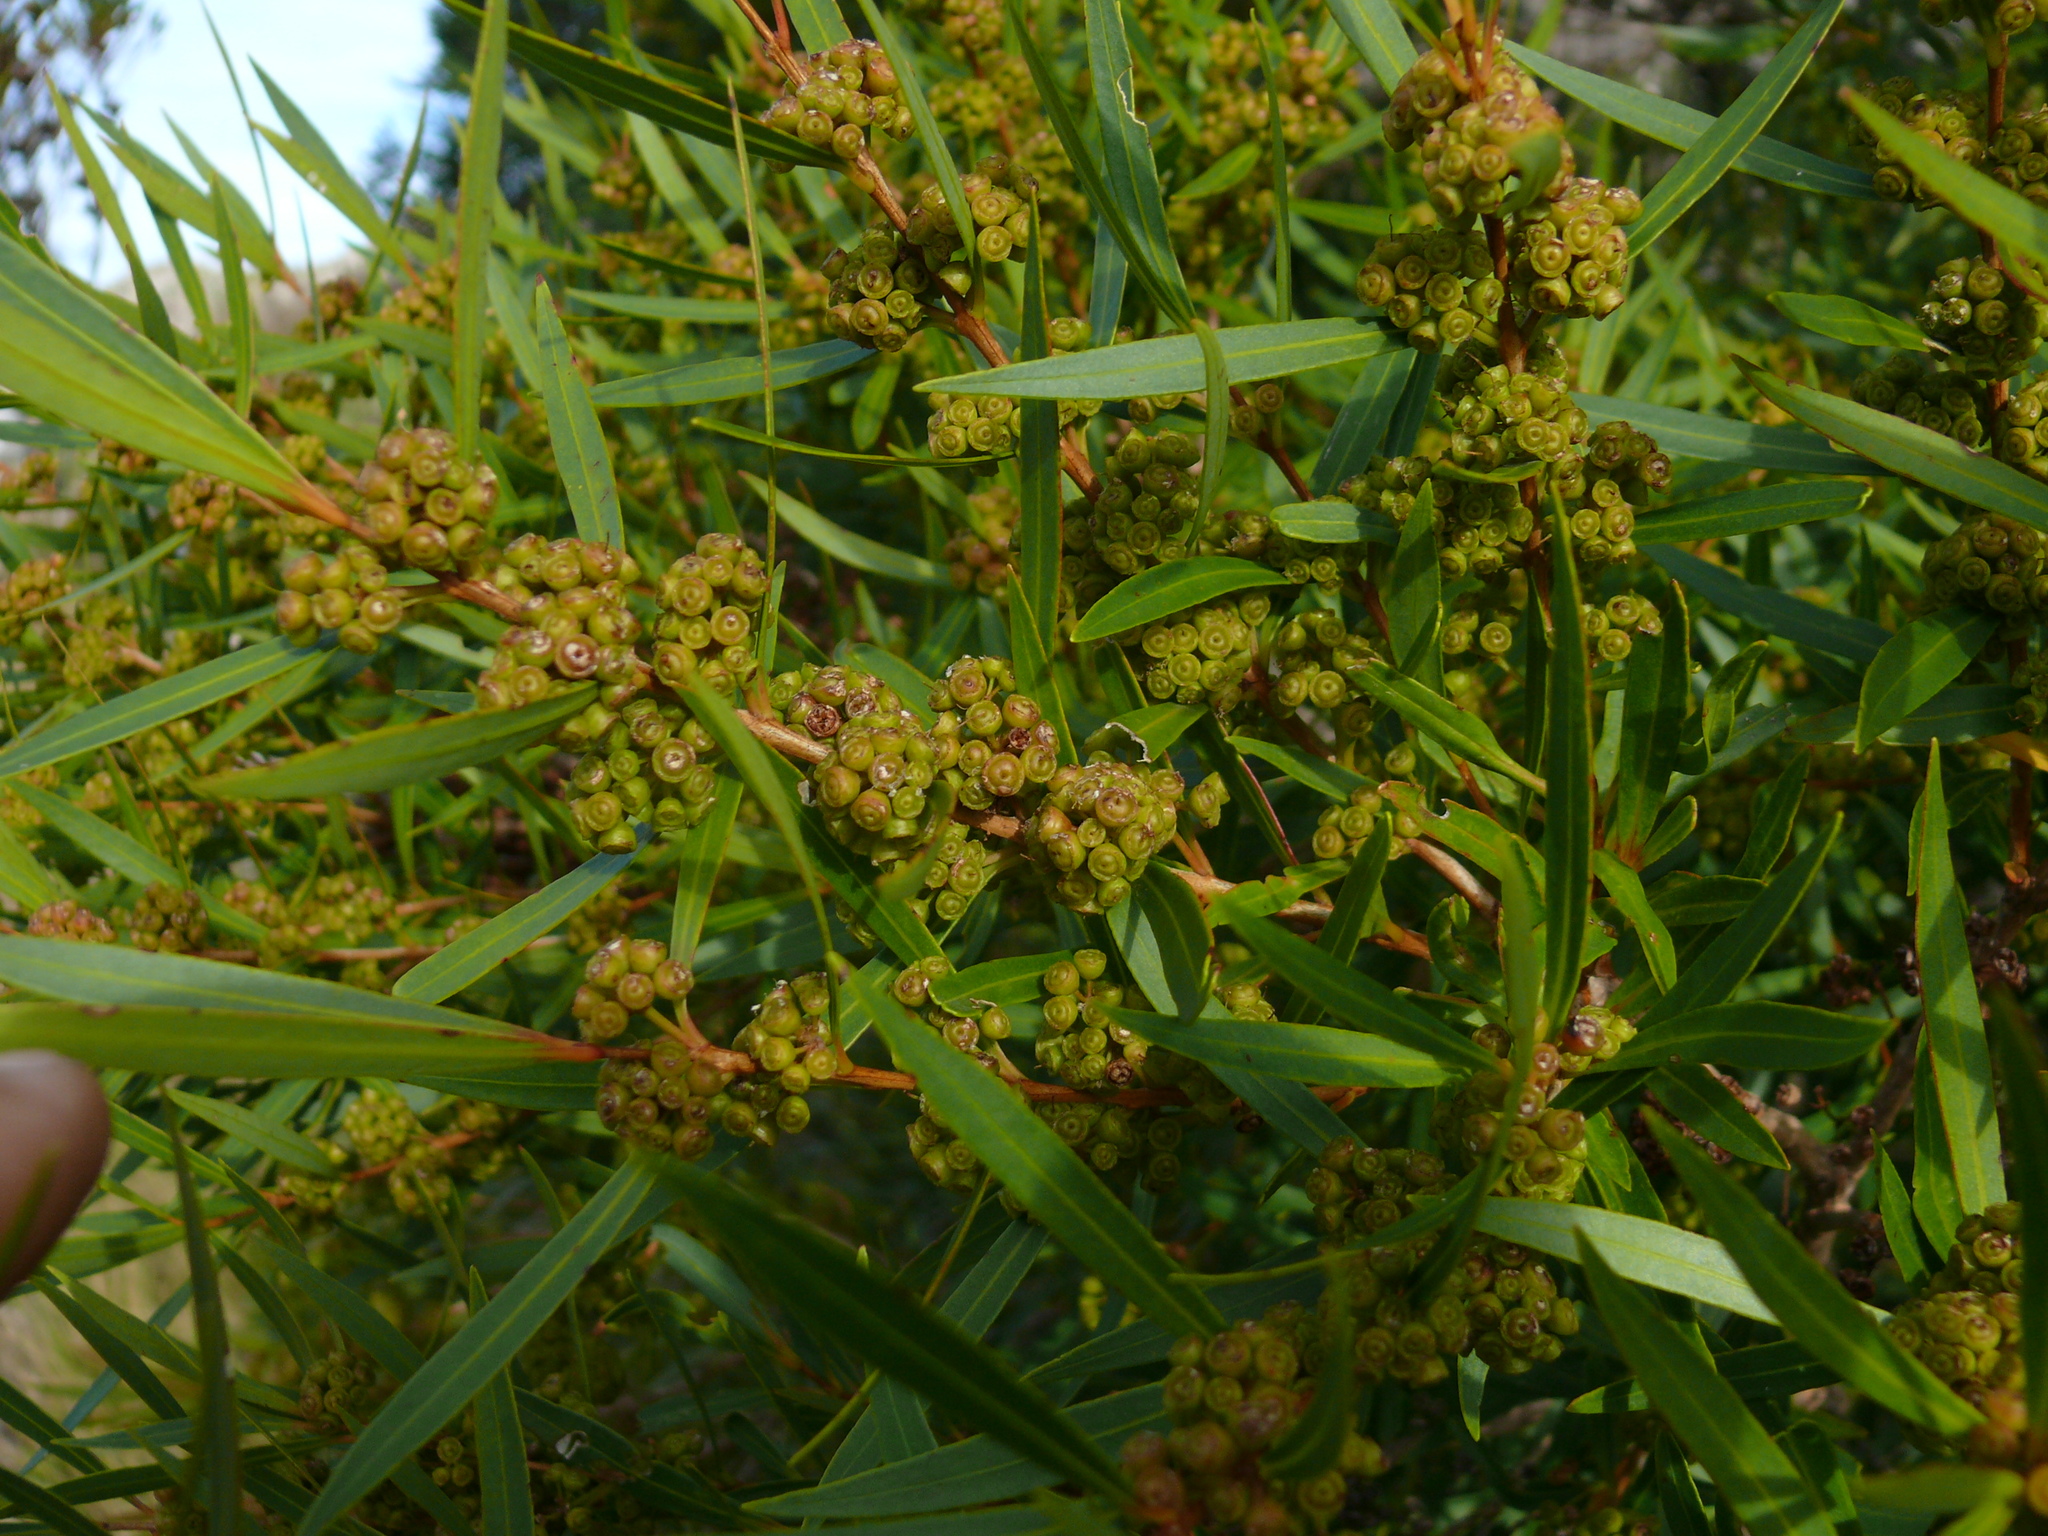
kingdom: Plantae
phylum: Tracheophyta
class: Magnoliopsida
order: Myrtales
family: Myrtaceae
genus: Callistemon
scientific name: Callistemon lanceolatus
